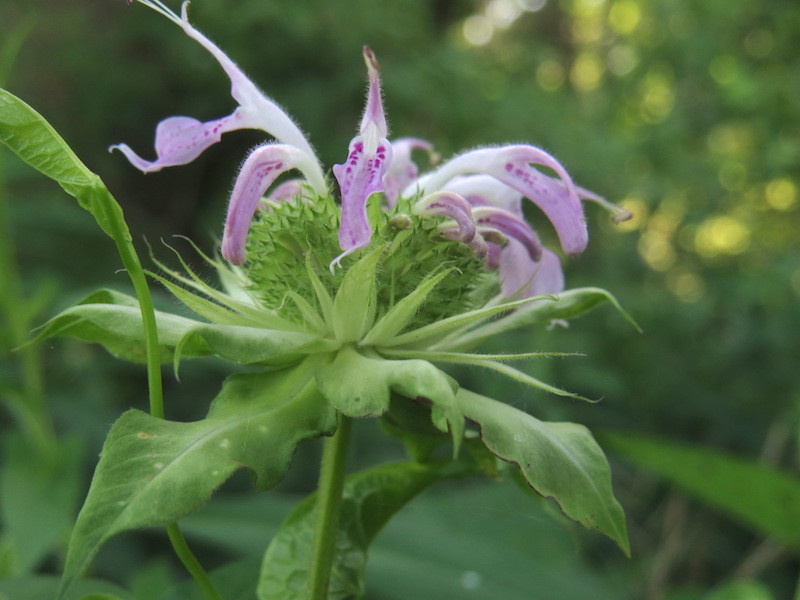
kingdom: Plantae
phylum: Tracheophyta
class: Magnoliopsida
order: Lamiales
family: Lamiaceae
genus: Monarda
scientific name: Monarda fistulosa
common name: Purple beebalm
